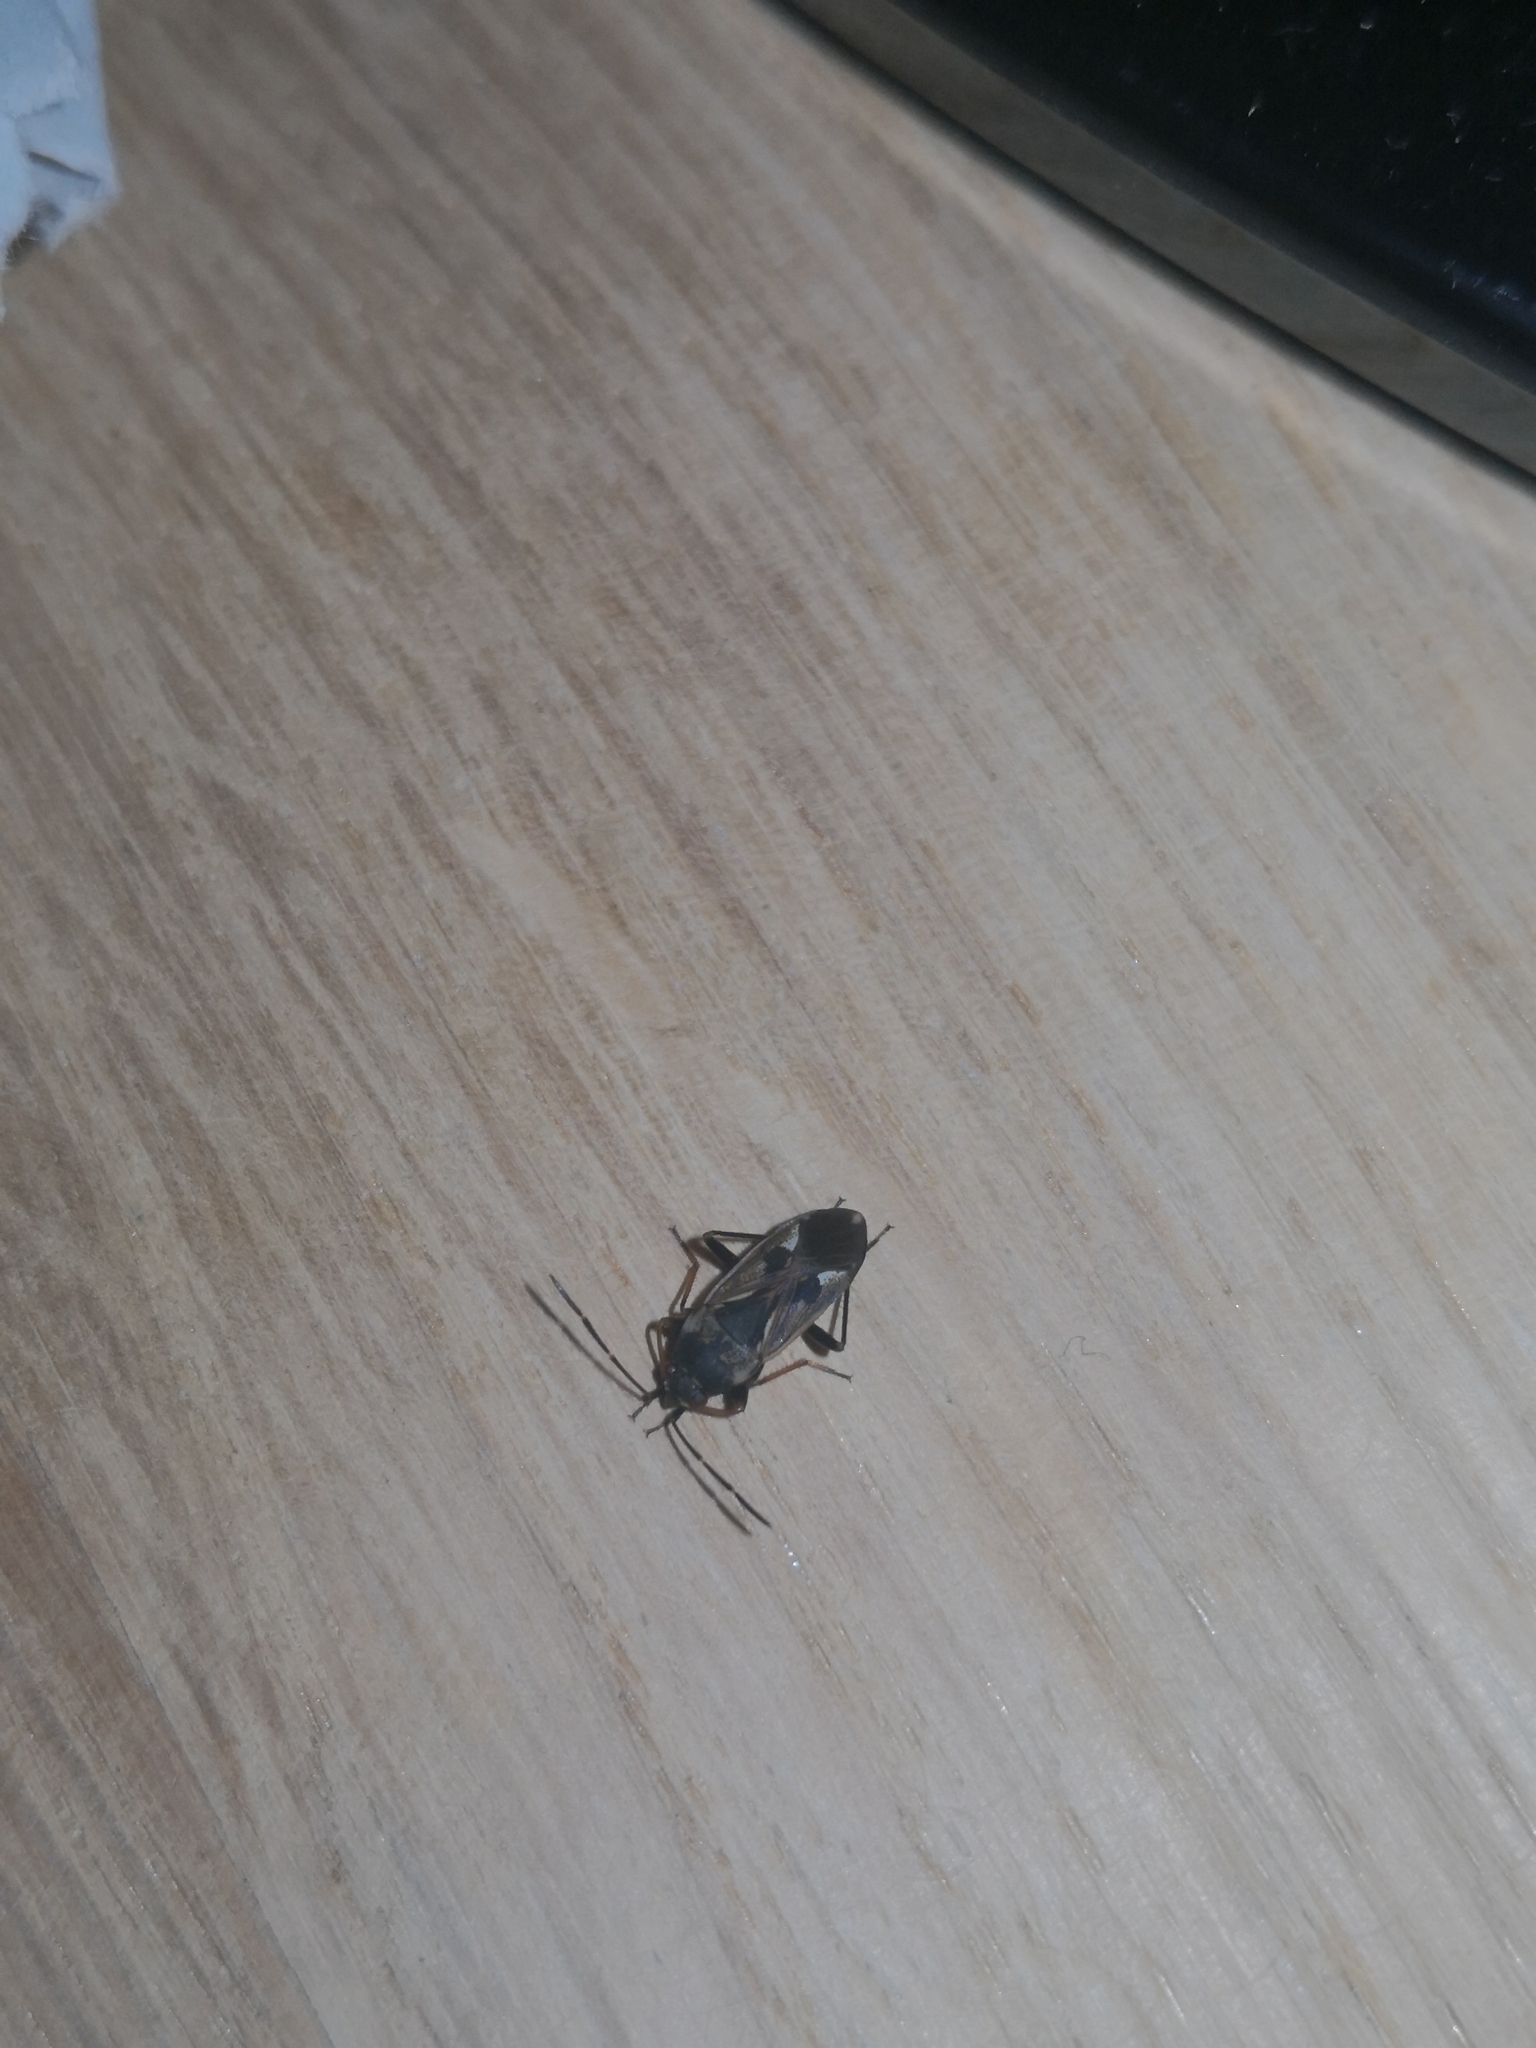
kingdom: Animalia
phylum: Arthropoda
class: Insecta
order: Hemiptera
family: Rhyparochromidae
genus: Rhyparochromus
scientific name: Rhyparochromus vulgaris
